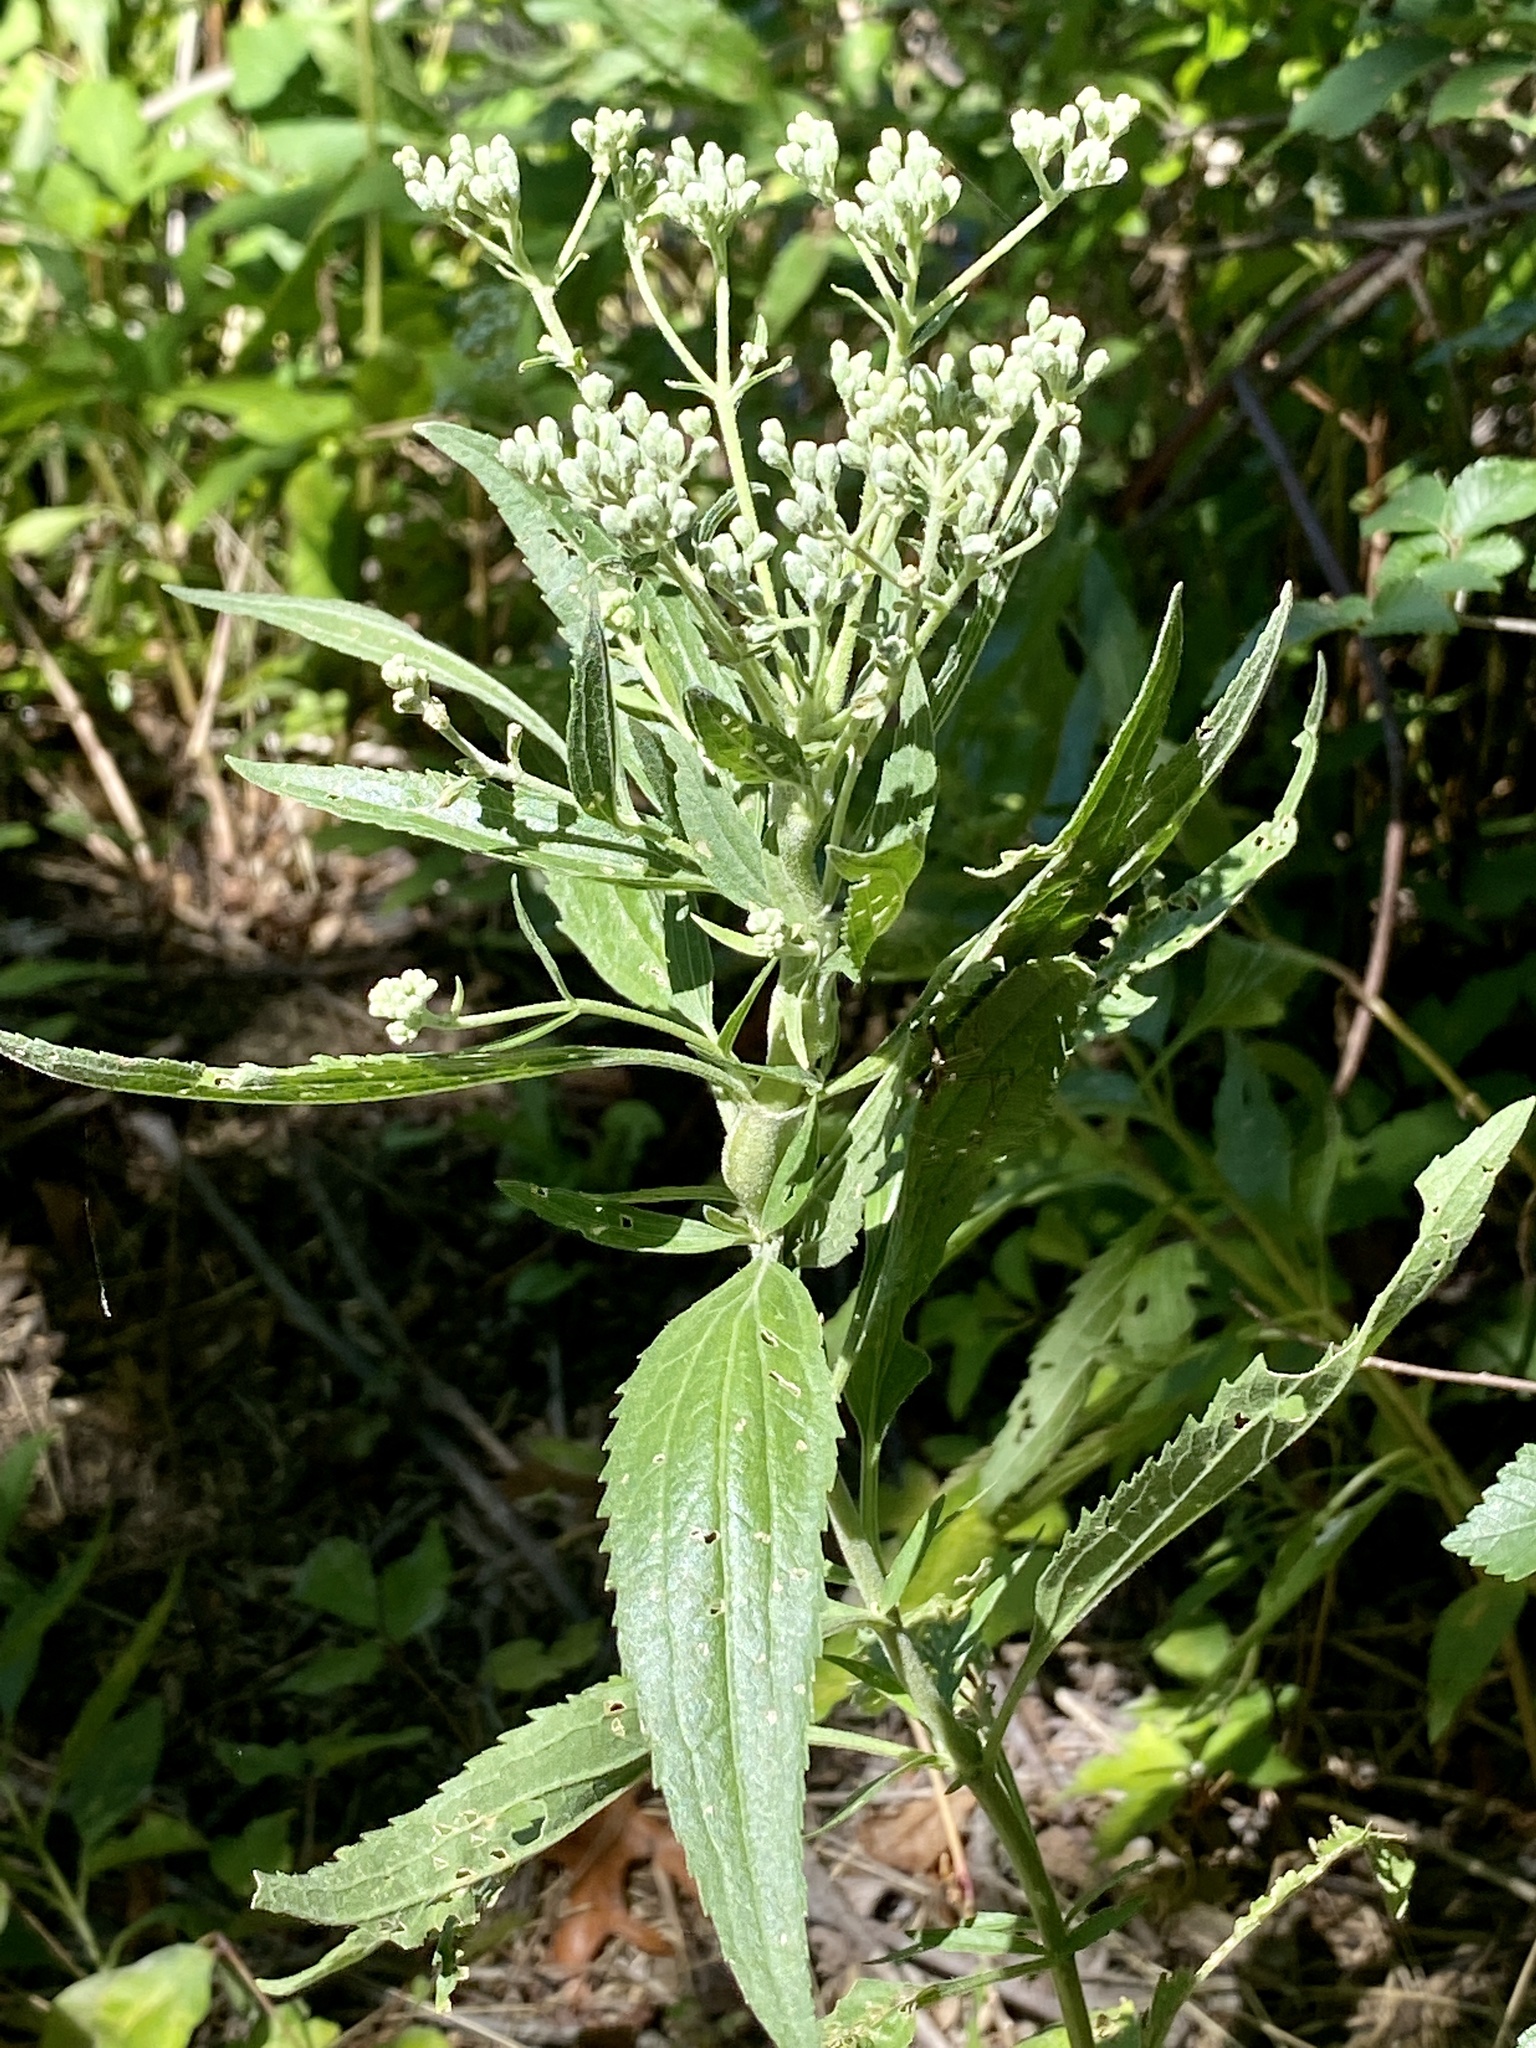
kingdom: Plantae
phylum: Tracheophyta
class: Magnoliopsida
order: Asterales
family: Asteraceae
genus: Eupatorium
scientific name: Eupatorium serotinum
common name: Late boneset
